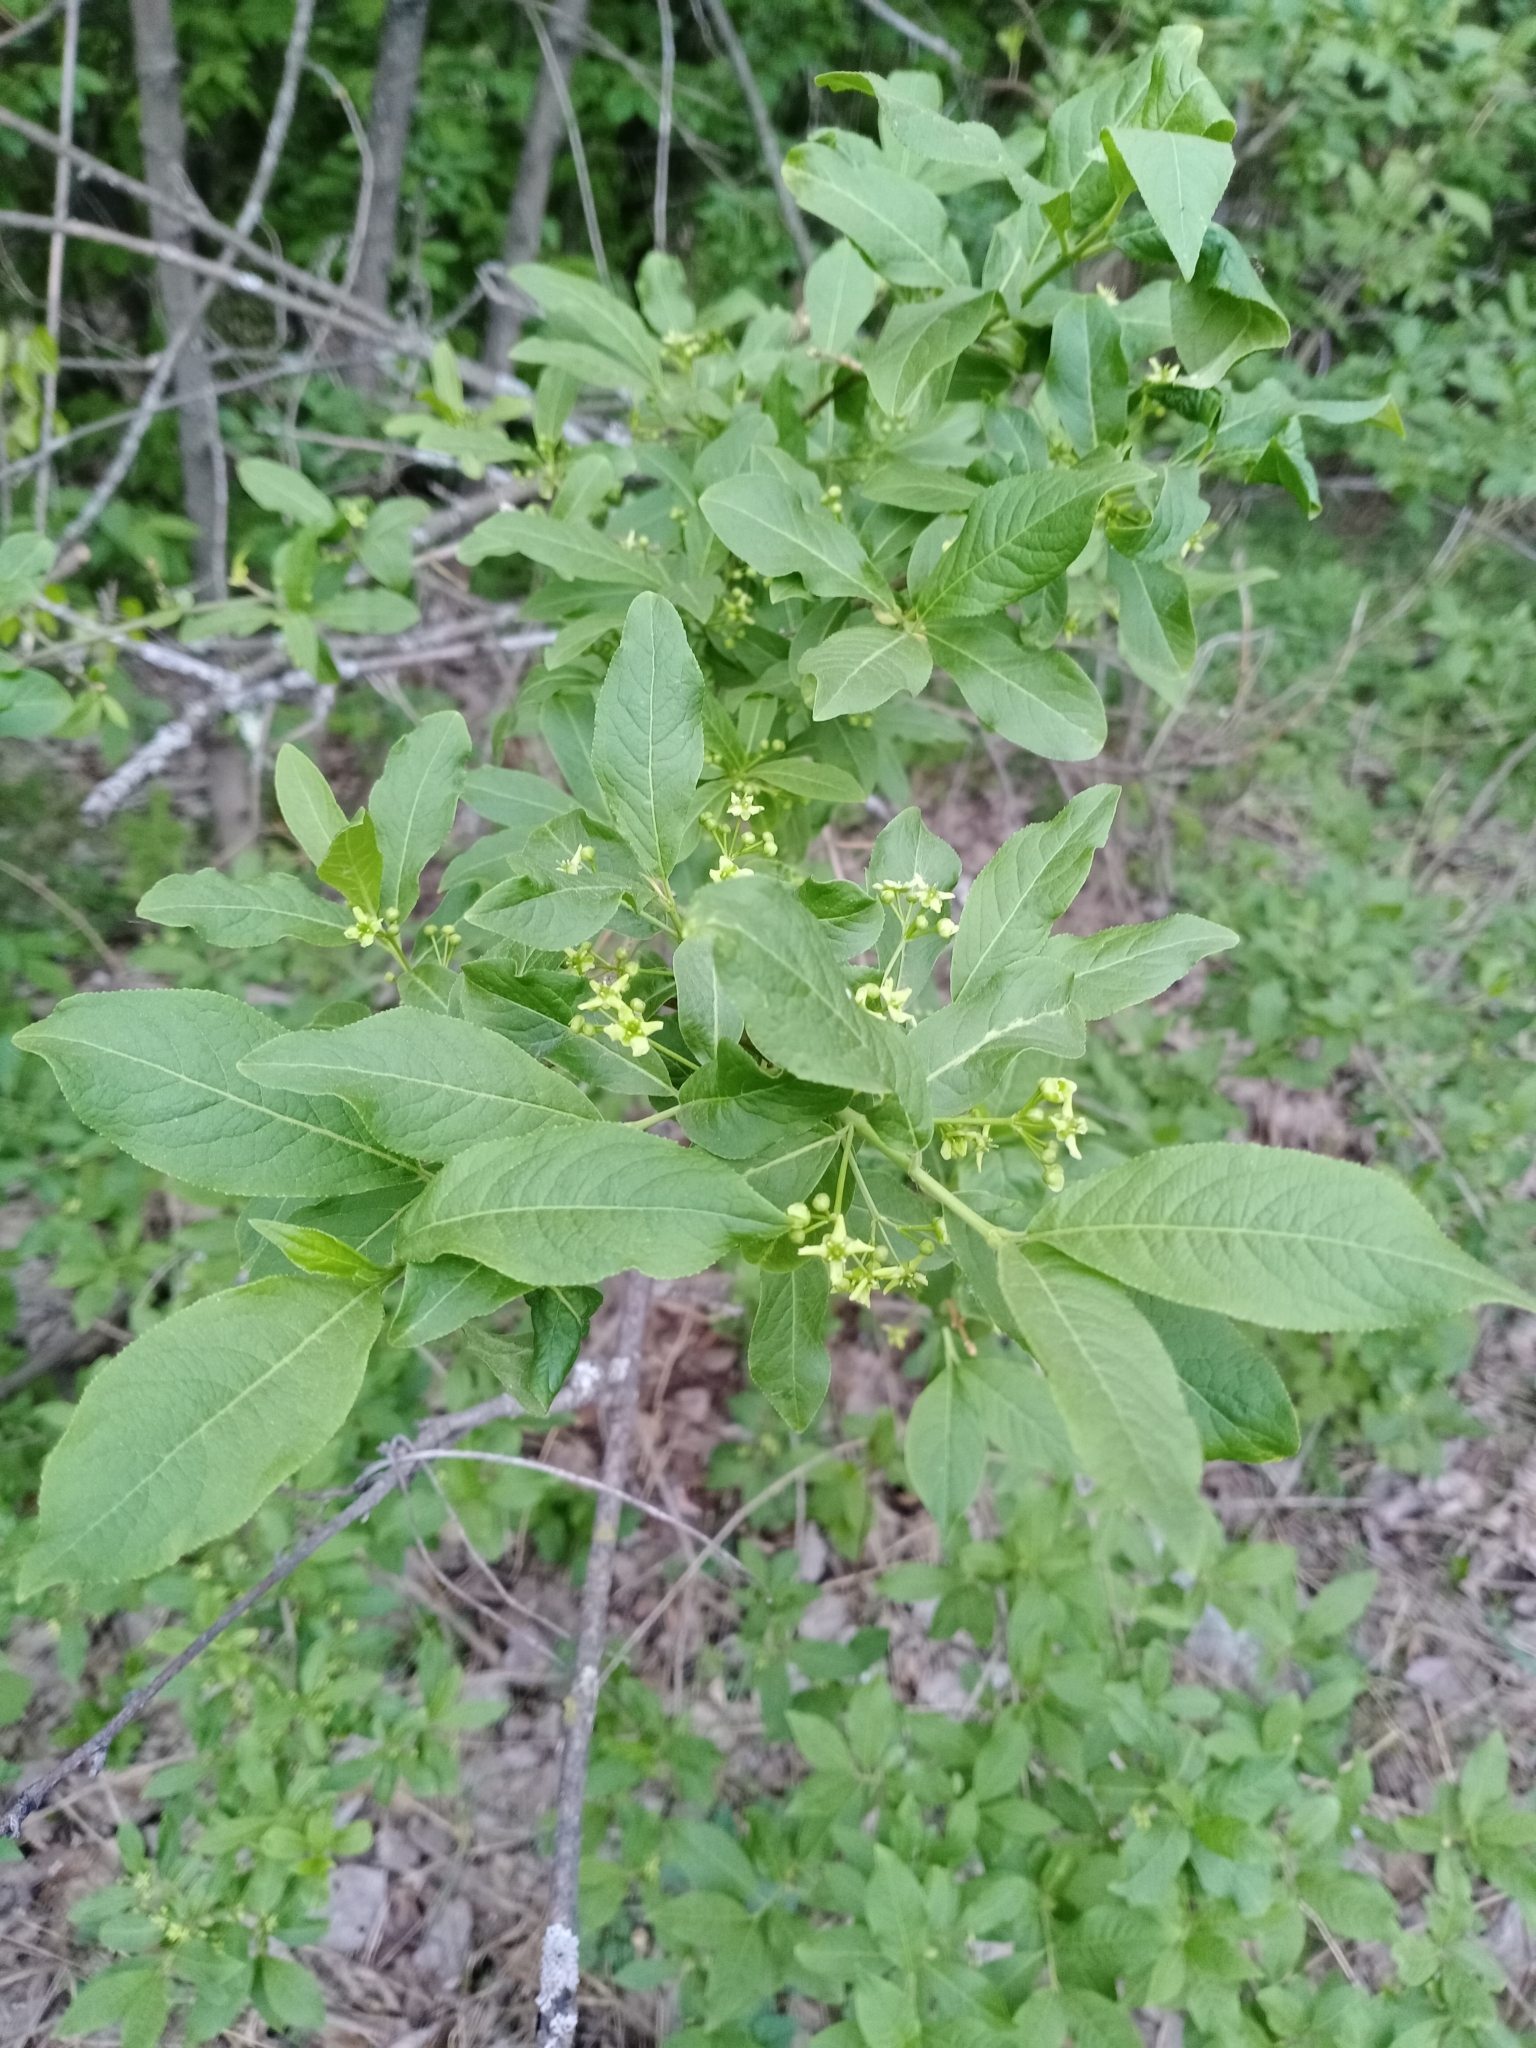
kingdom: Plantae
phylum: Tracheophyta
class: Magnoliopsida
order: Celastrales
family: Celastraceae
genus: Euonymus
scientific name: Euonymus europaeus
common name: Spindle
